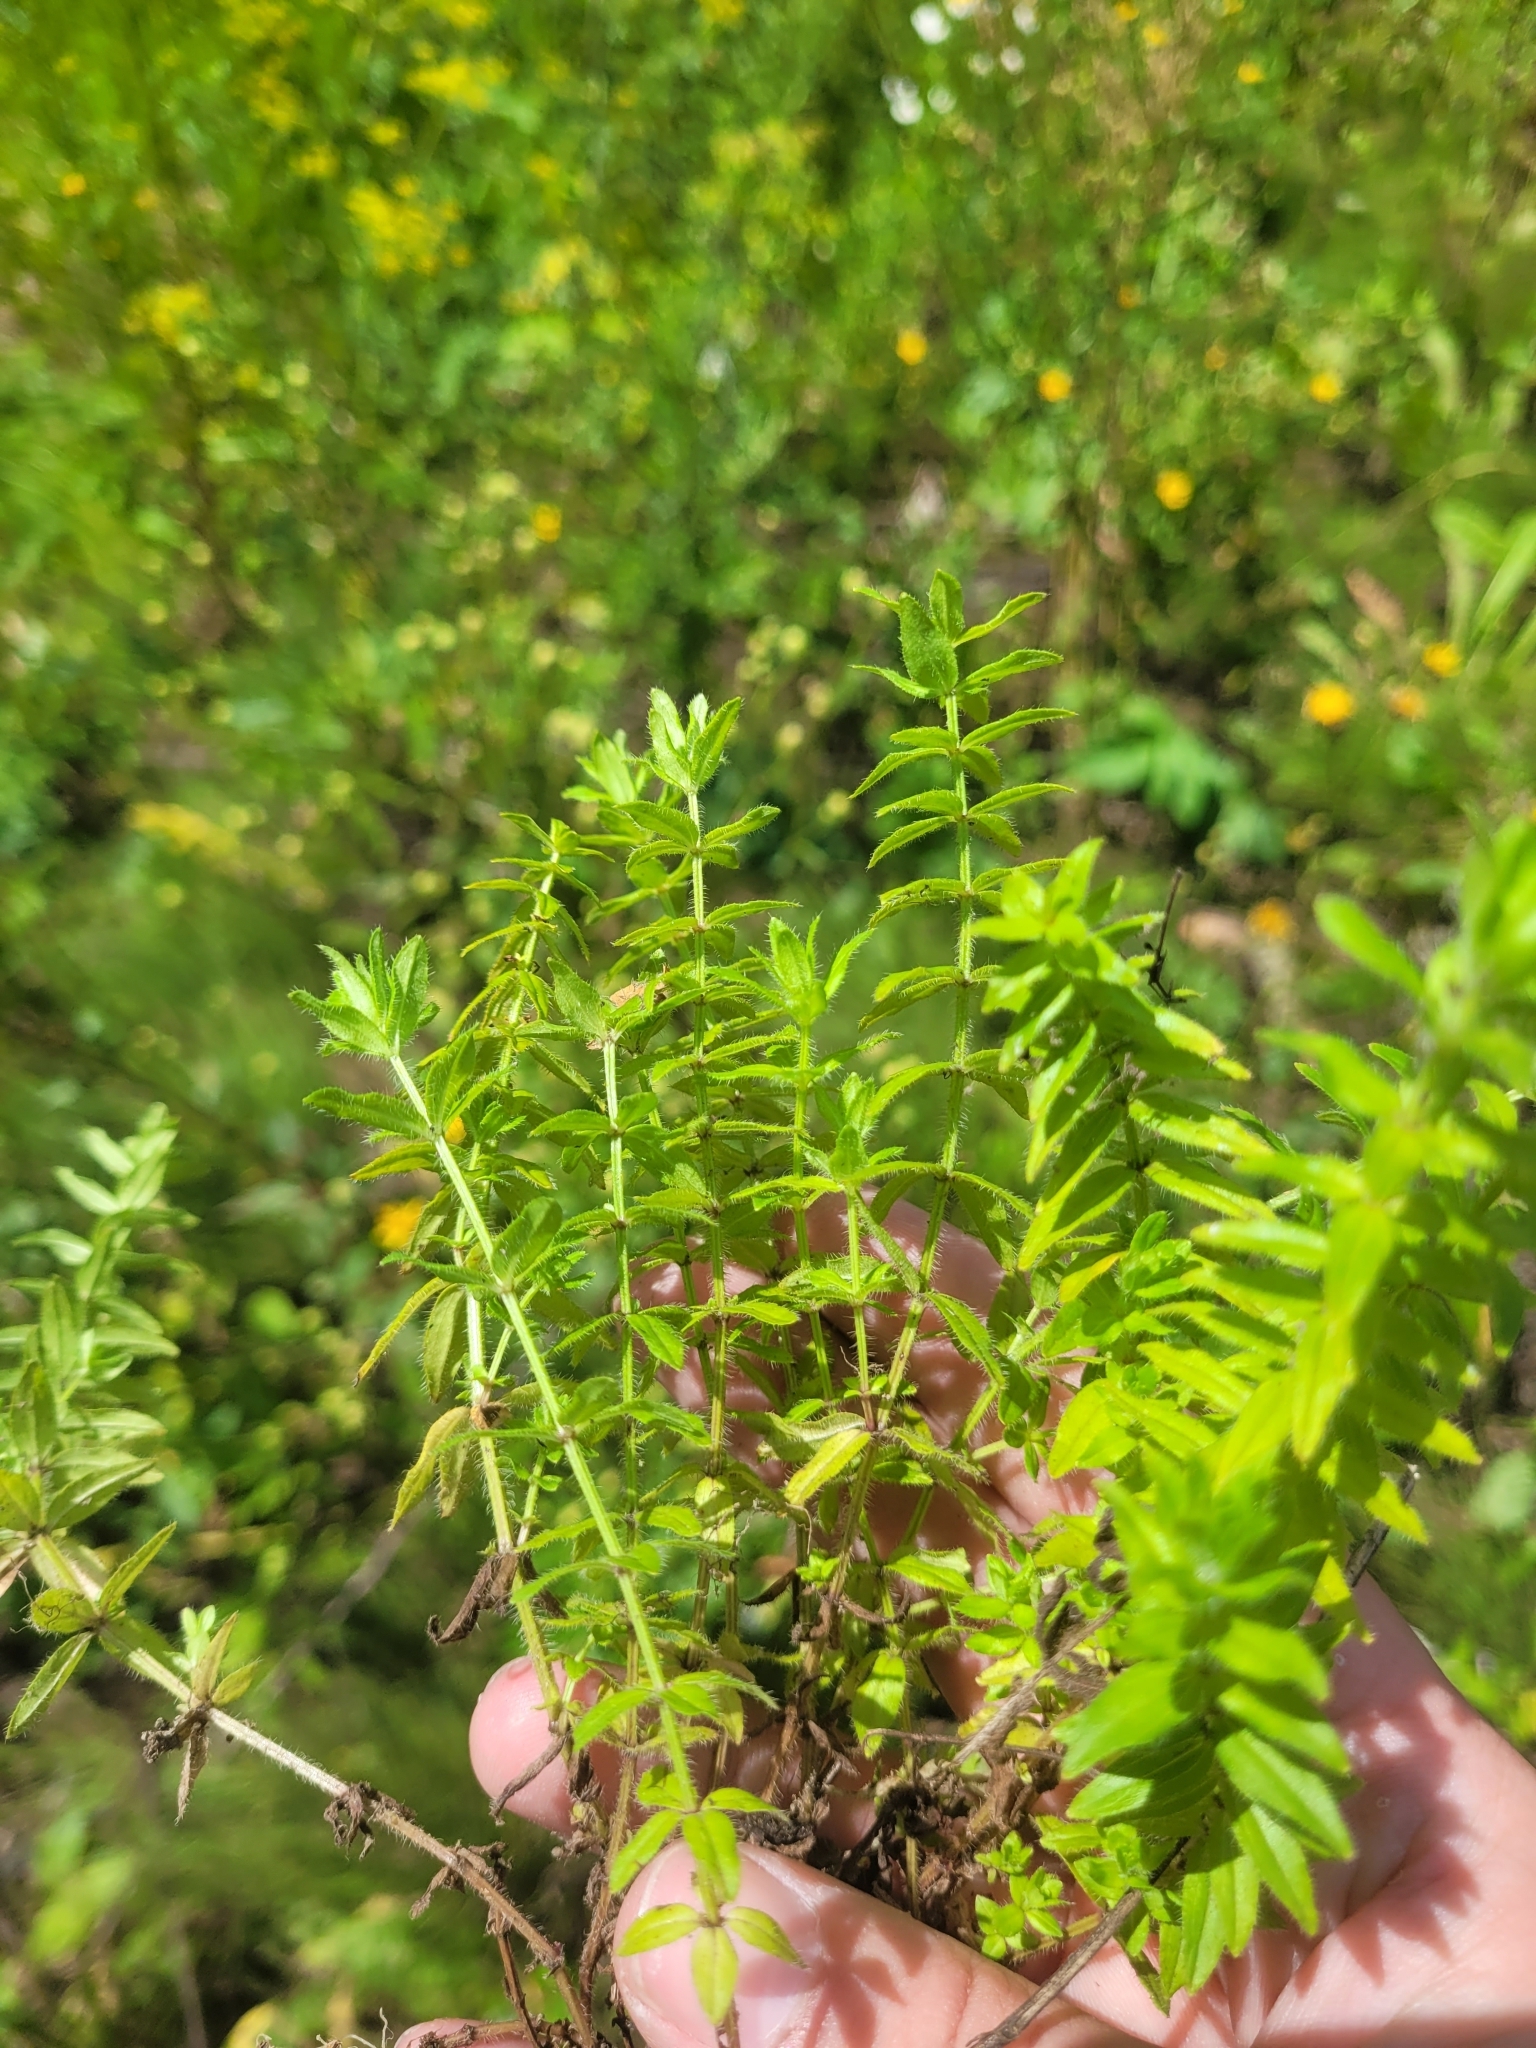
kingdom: Plantae
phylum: Tracheophyta
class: Magnoliopsida
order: Gentianales
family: Rubiaceae
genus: Cruciata
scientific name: Cruciata laevipes
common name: Crosswort
